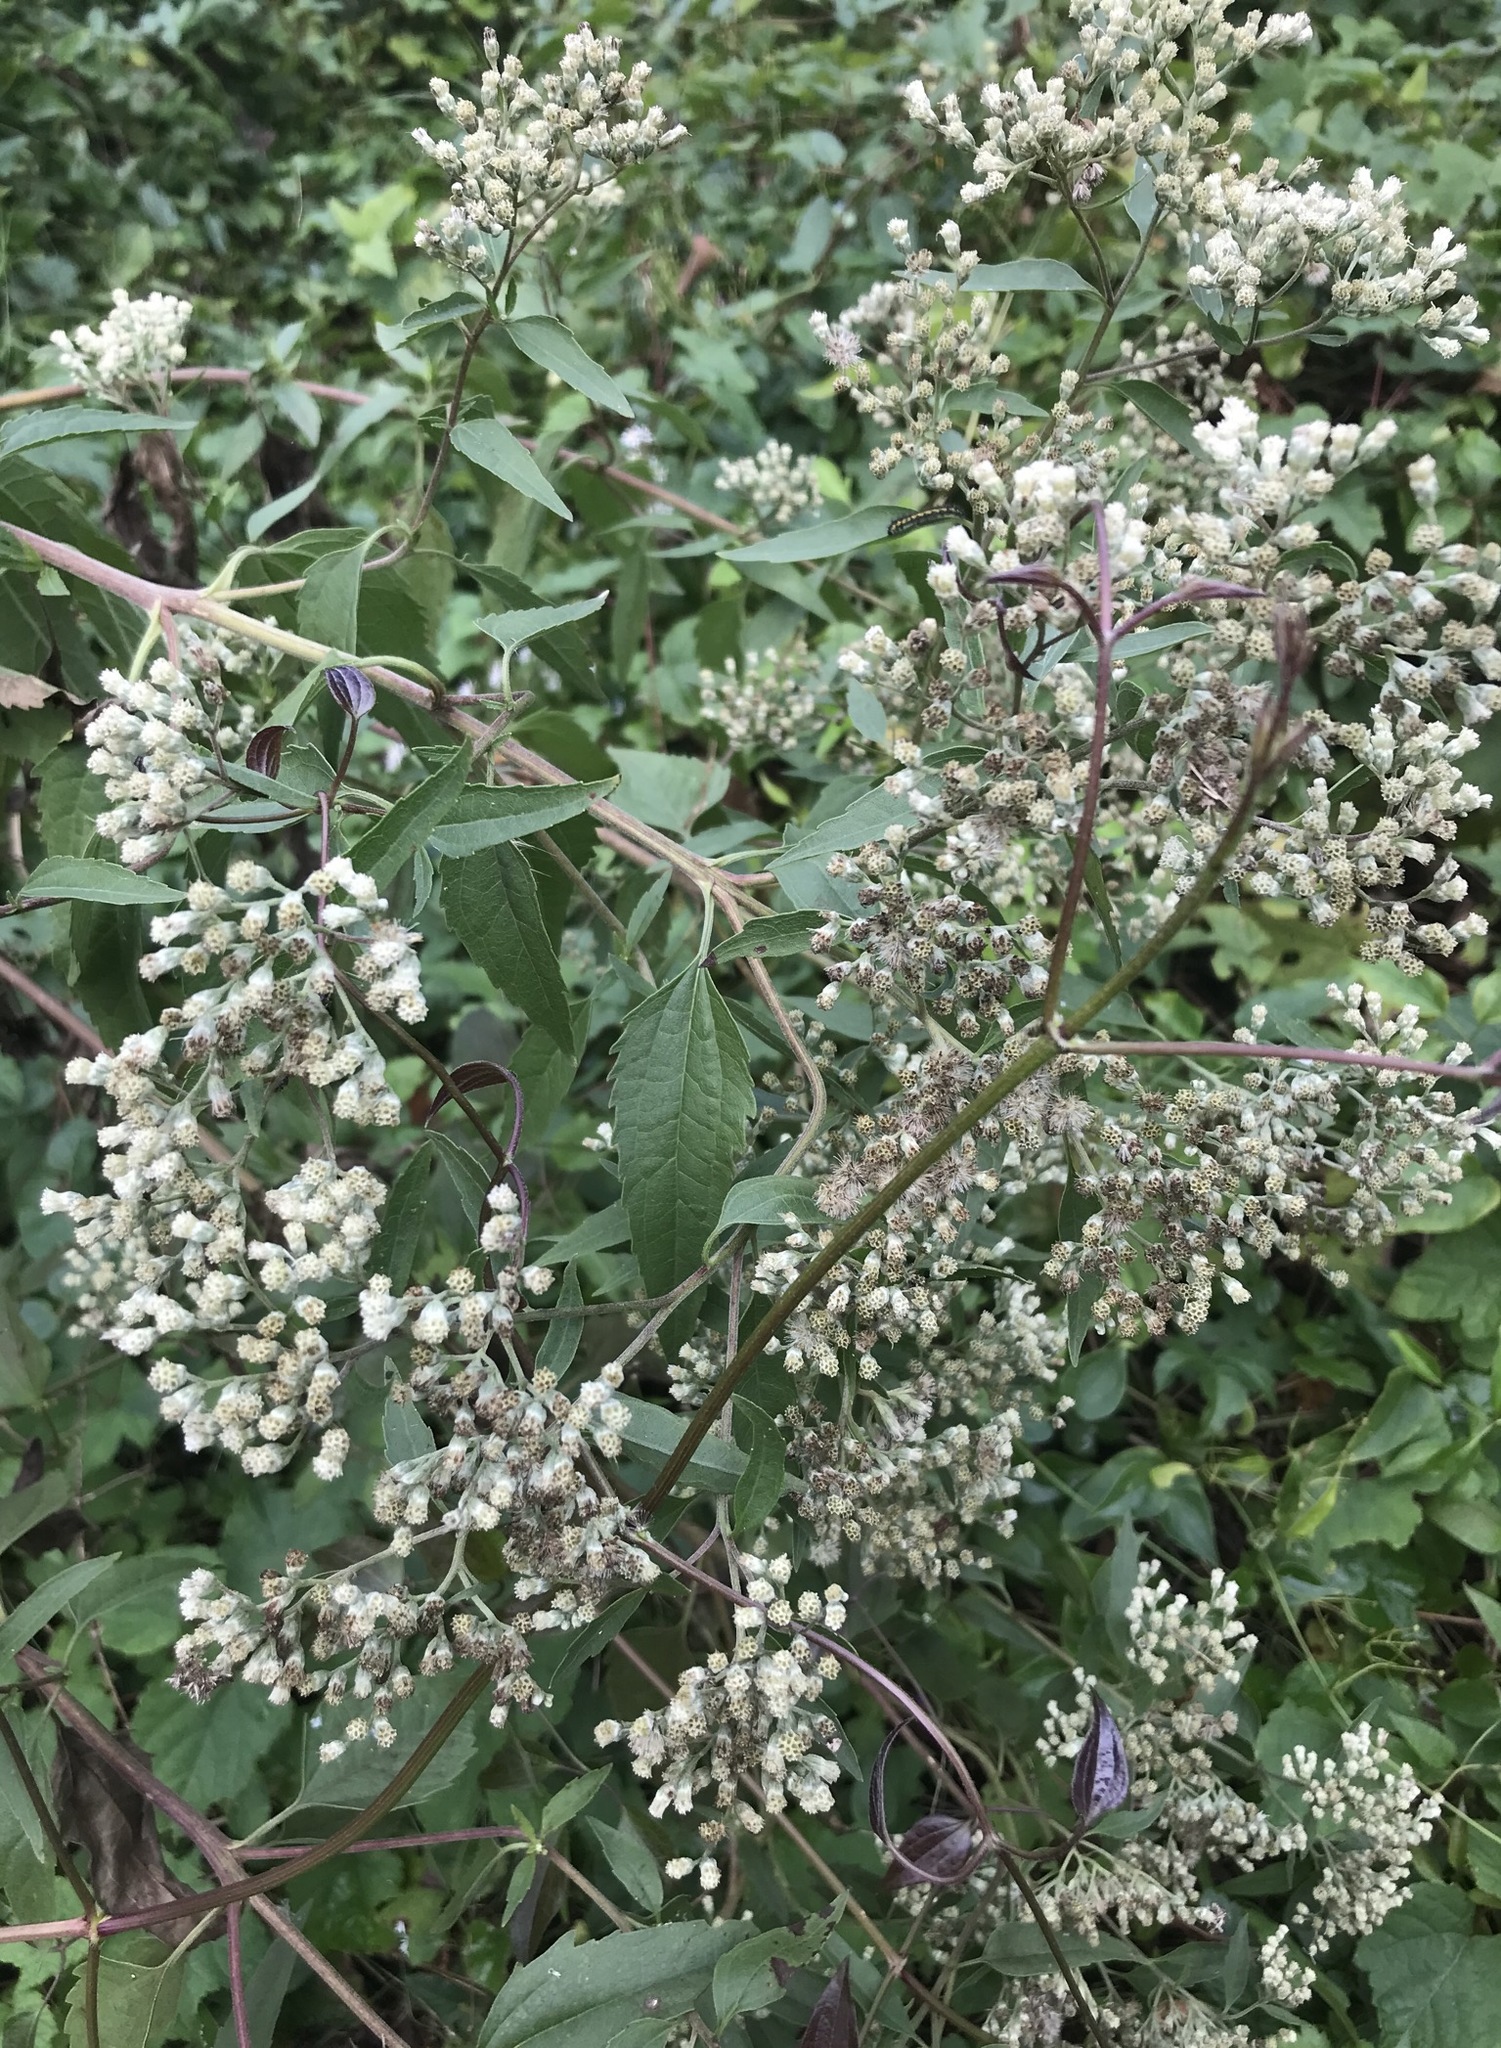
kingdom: Plantae
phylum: Tracheophyta
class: Magnoliopsida
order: Asterales
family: Asteraceae
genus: Eupatorium
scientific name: Eupatorium serotinum
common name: Late boneset
